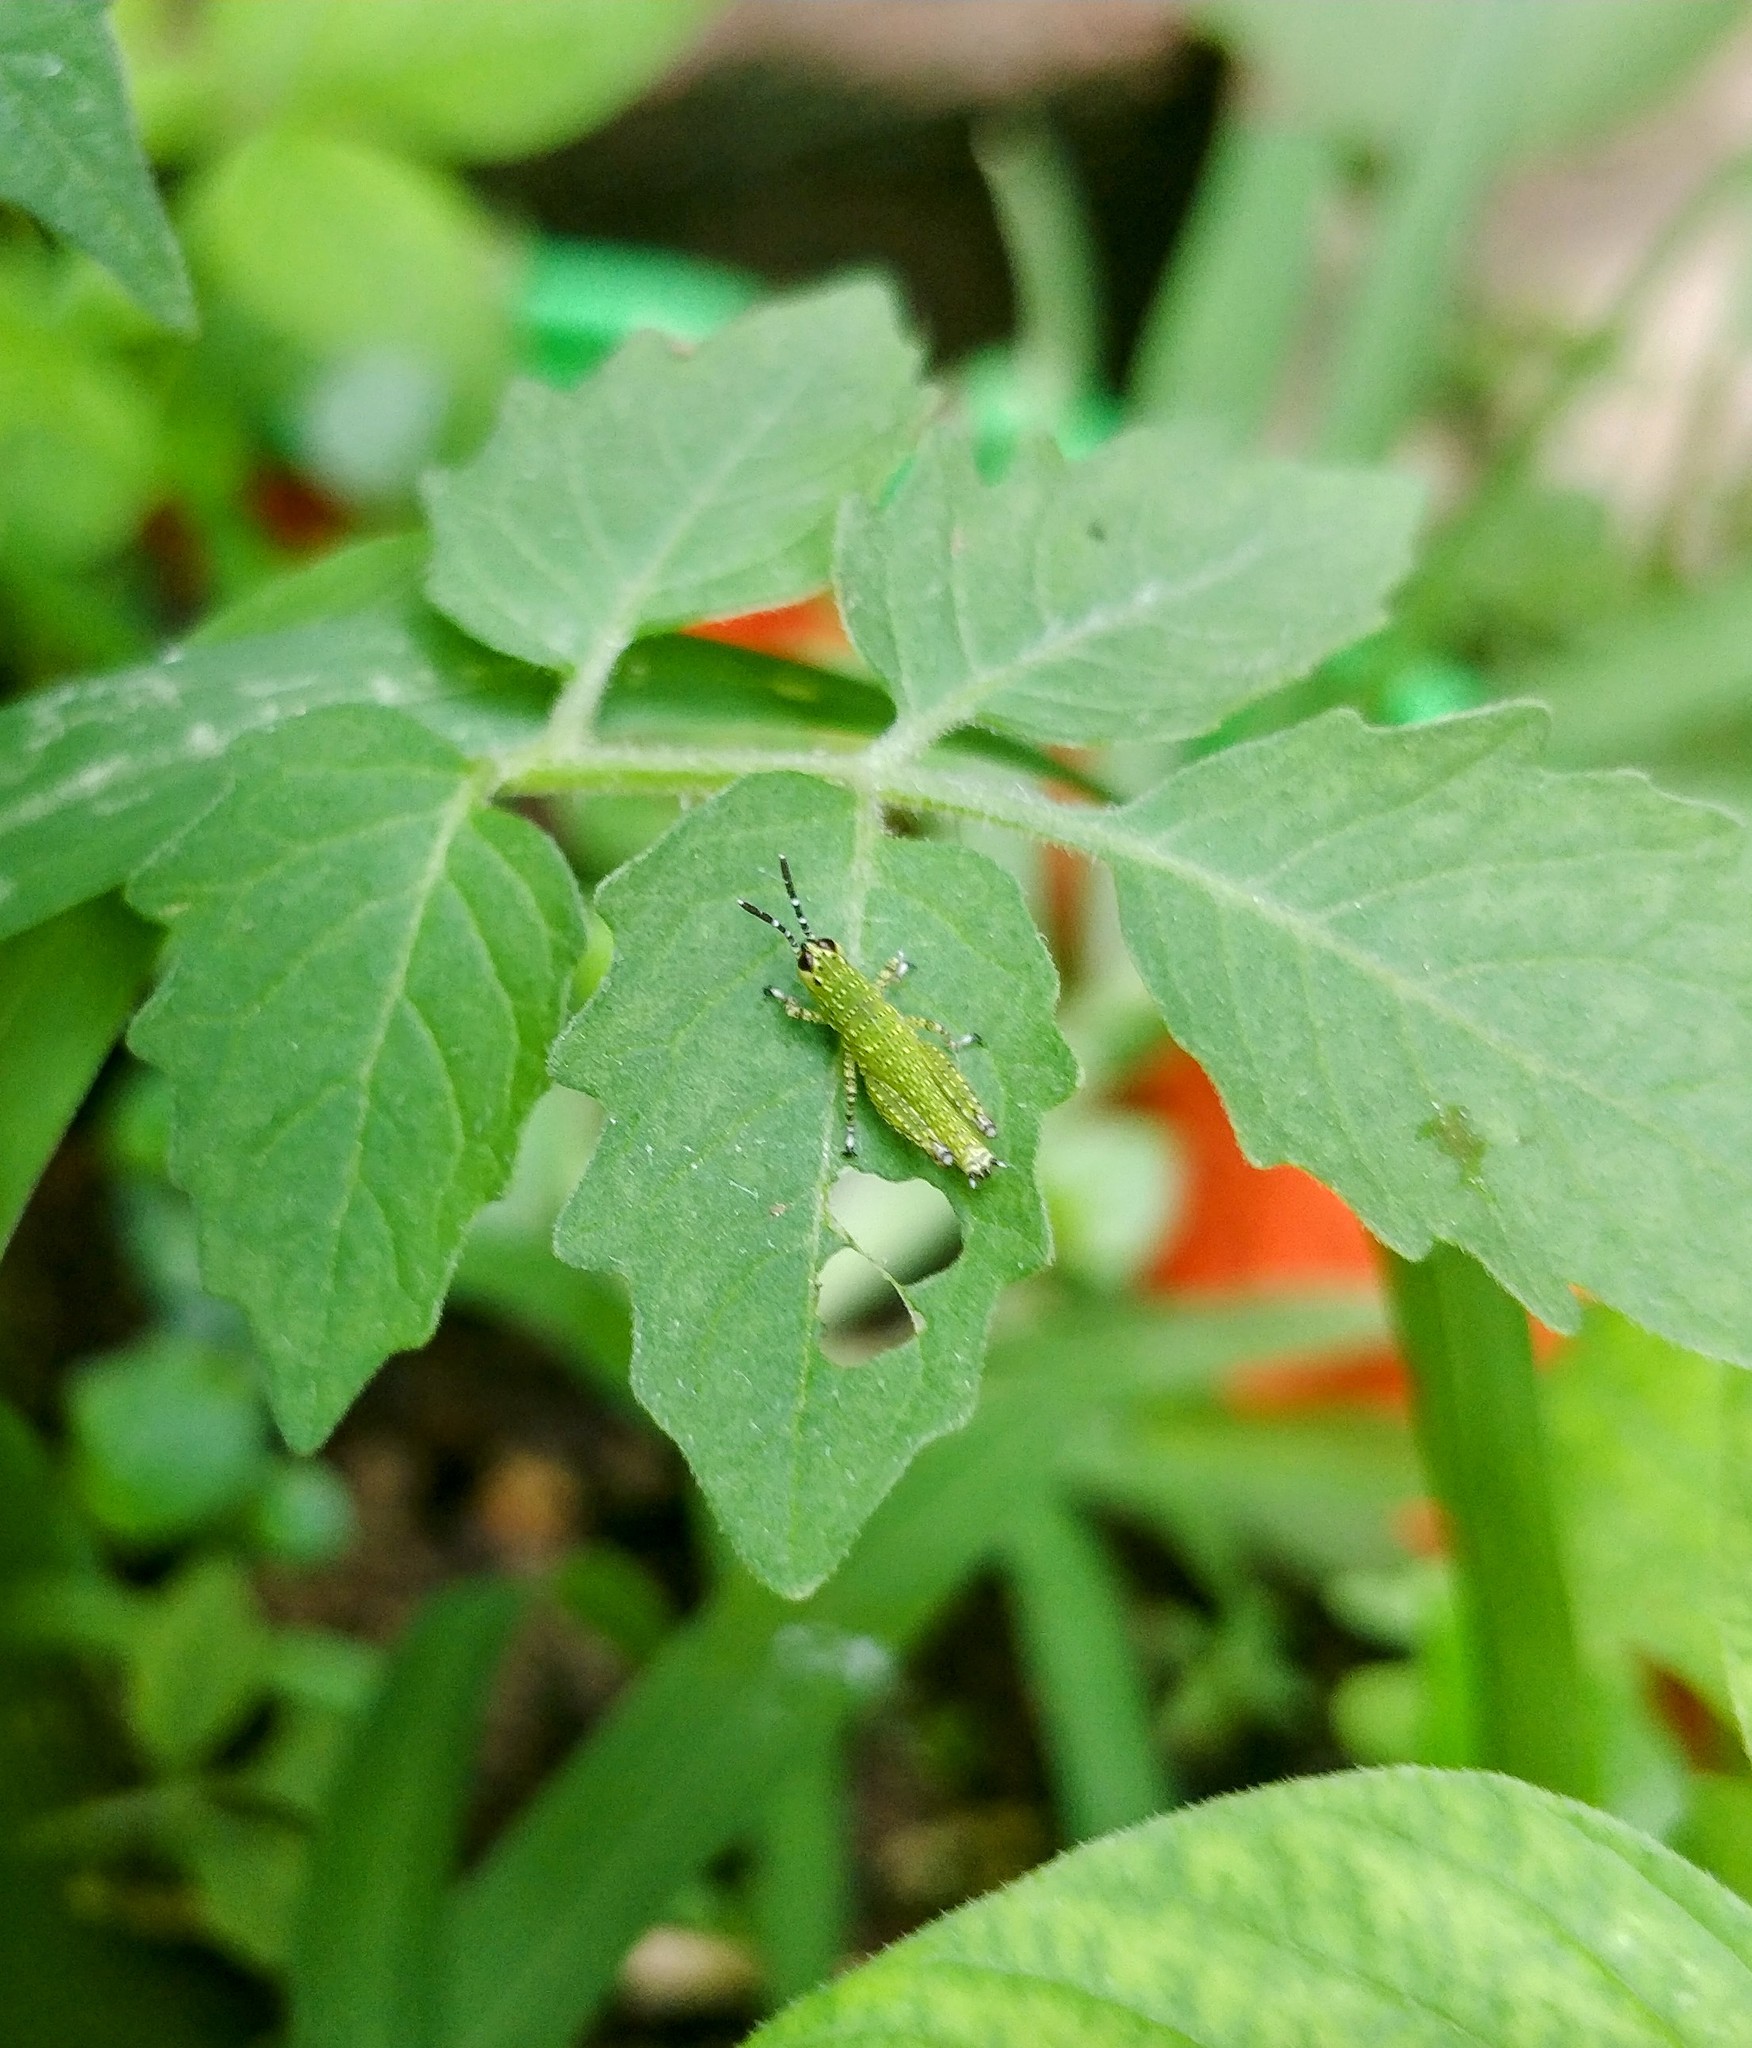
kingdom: Animalia
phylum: Arthropoda
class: Insecta
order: Orthoptera
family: Acrididae
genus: Xenocatantops
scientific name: Xenocatantops humile
